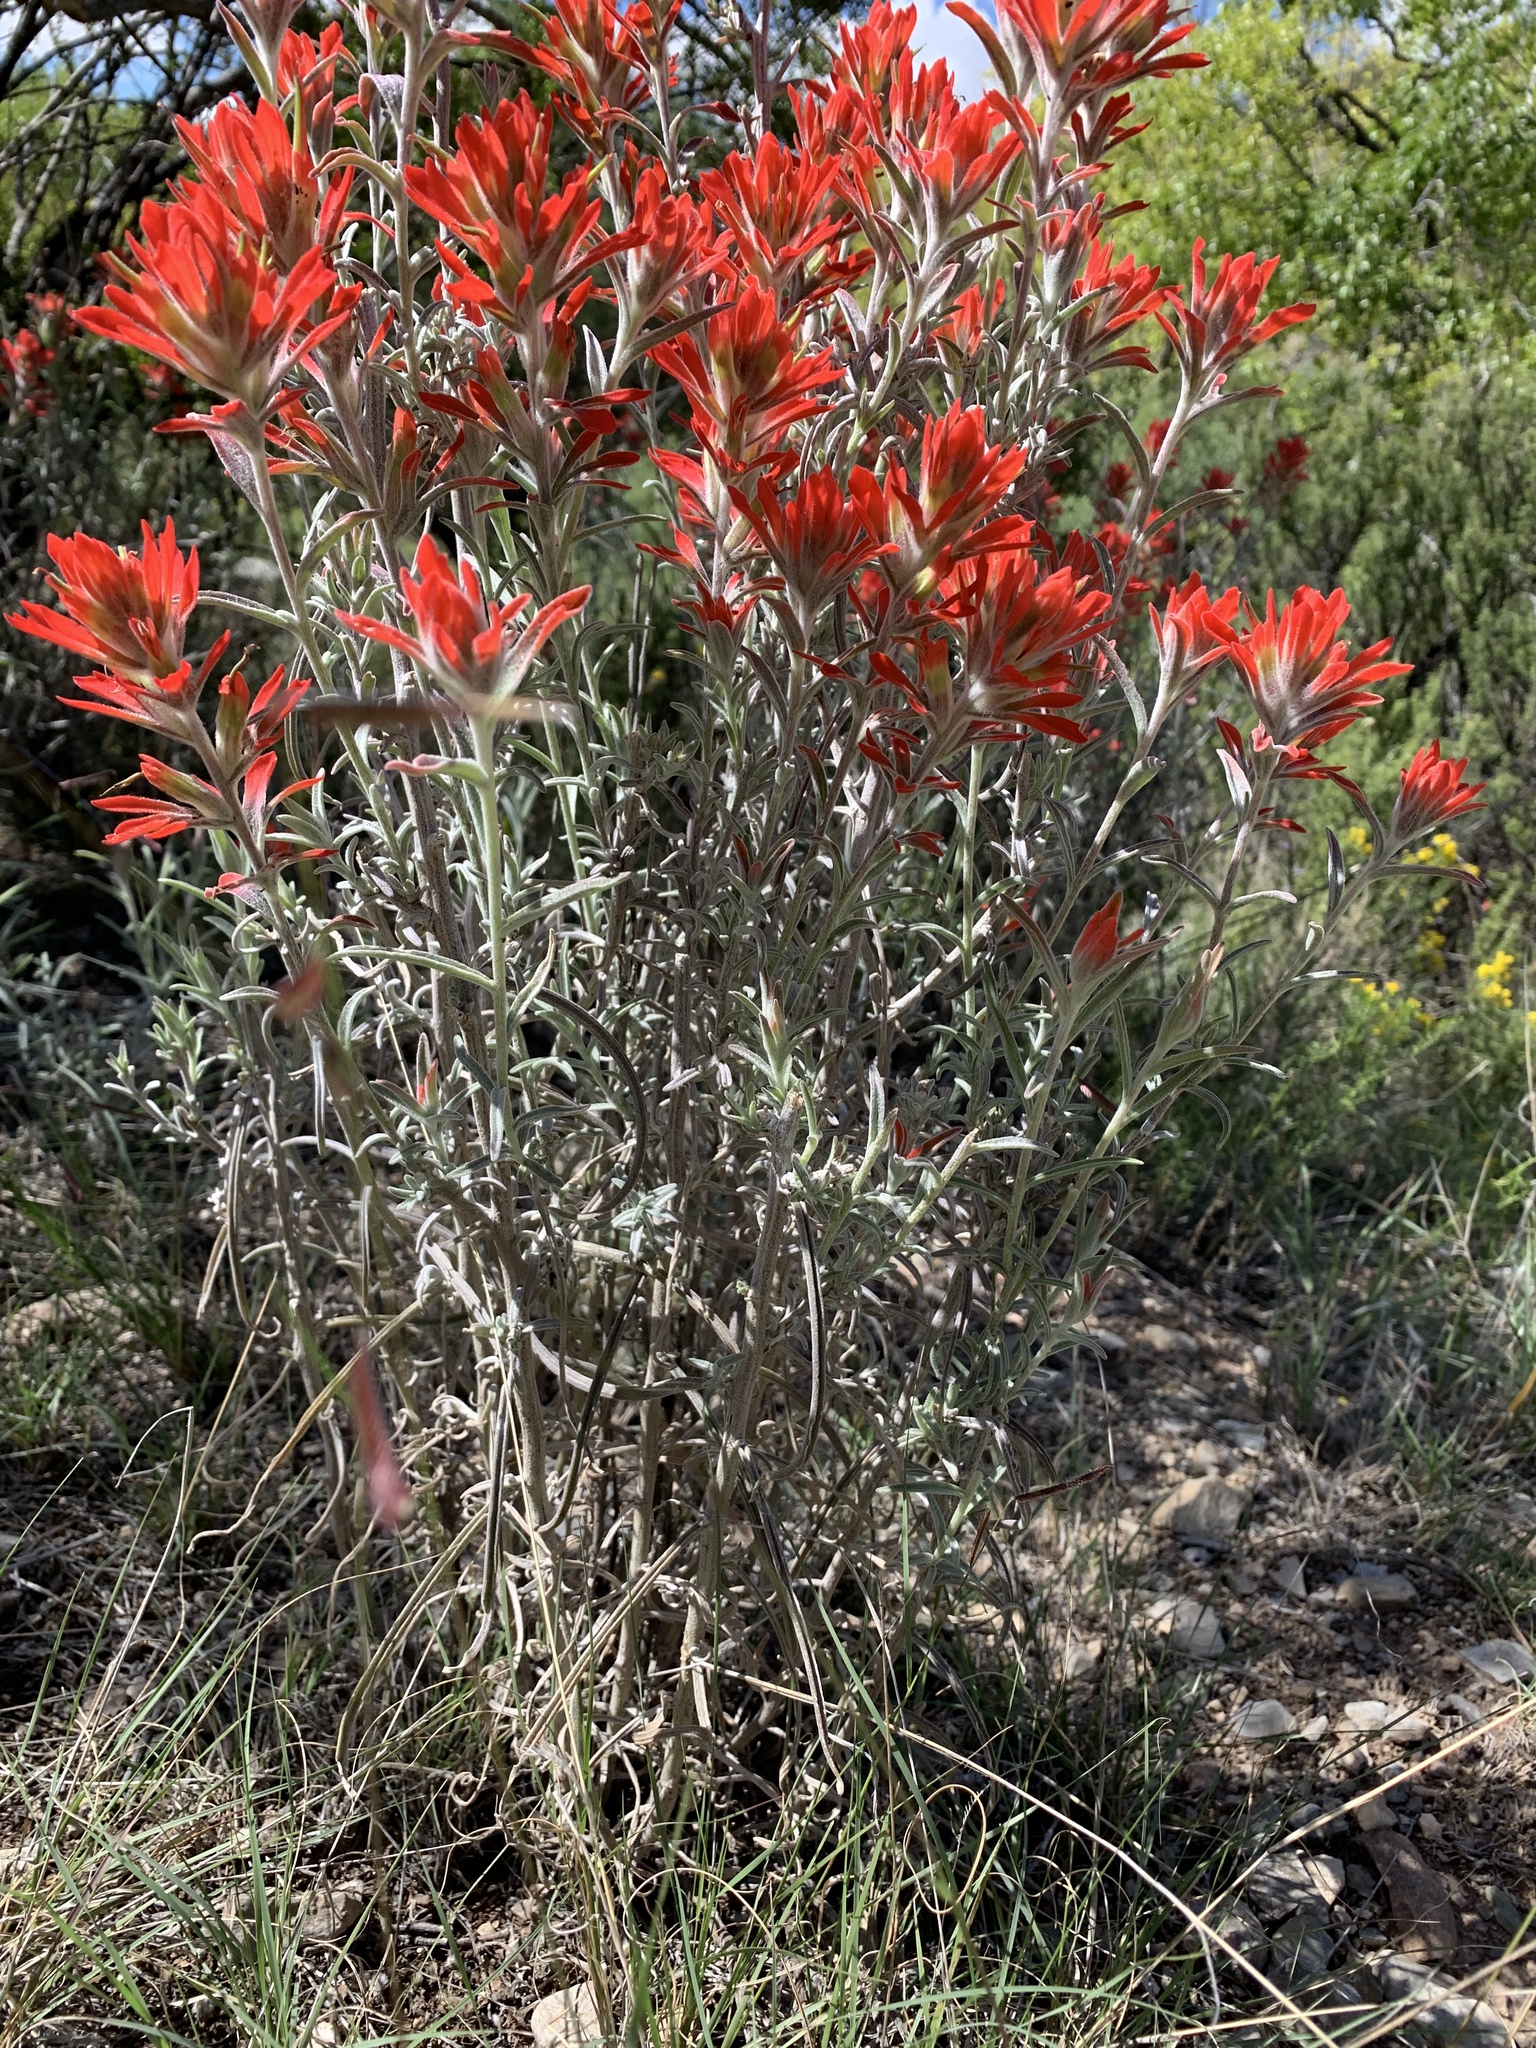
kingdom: Plantae
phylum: Tracheophyta
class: Magnoliopsida
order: Lamiales
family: Orobanchaceae
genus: Castilleja
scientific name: Castilleja lanata
